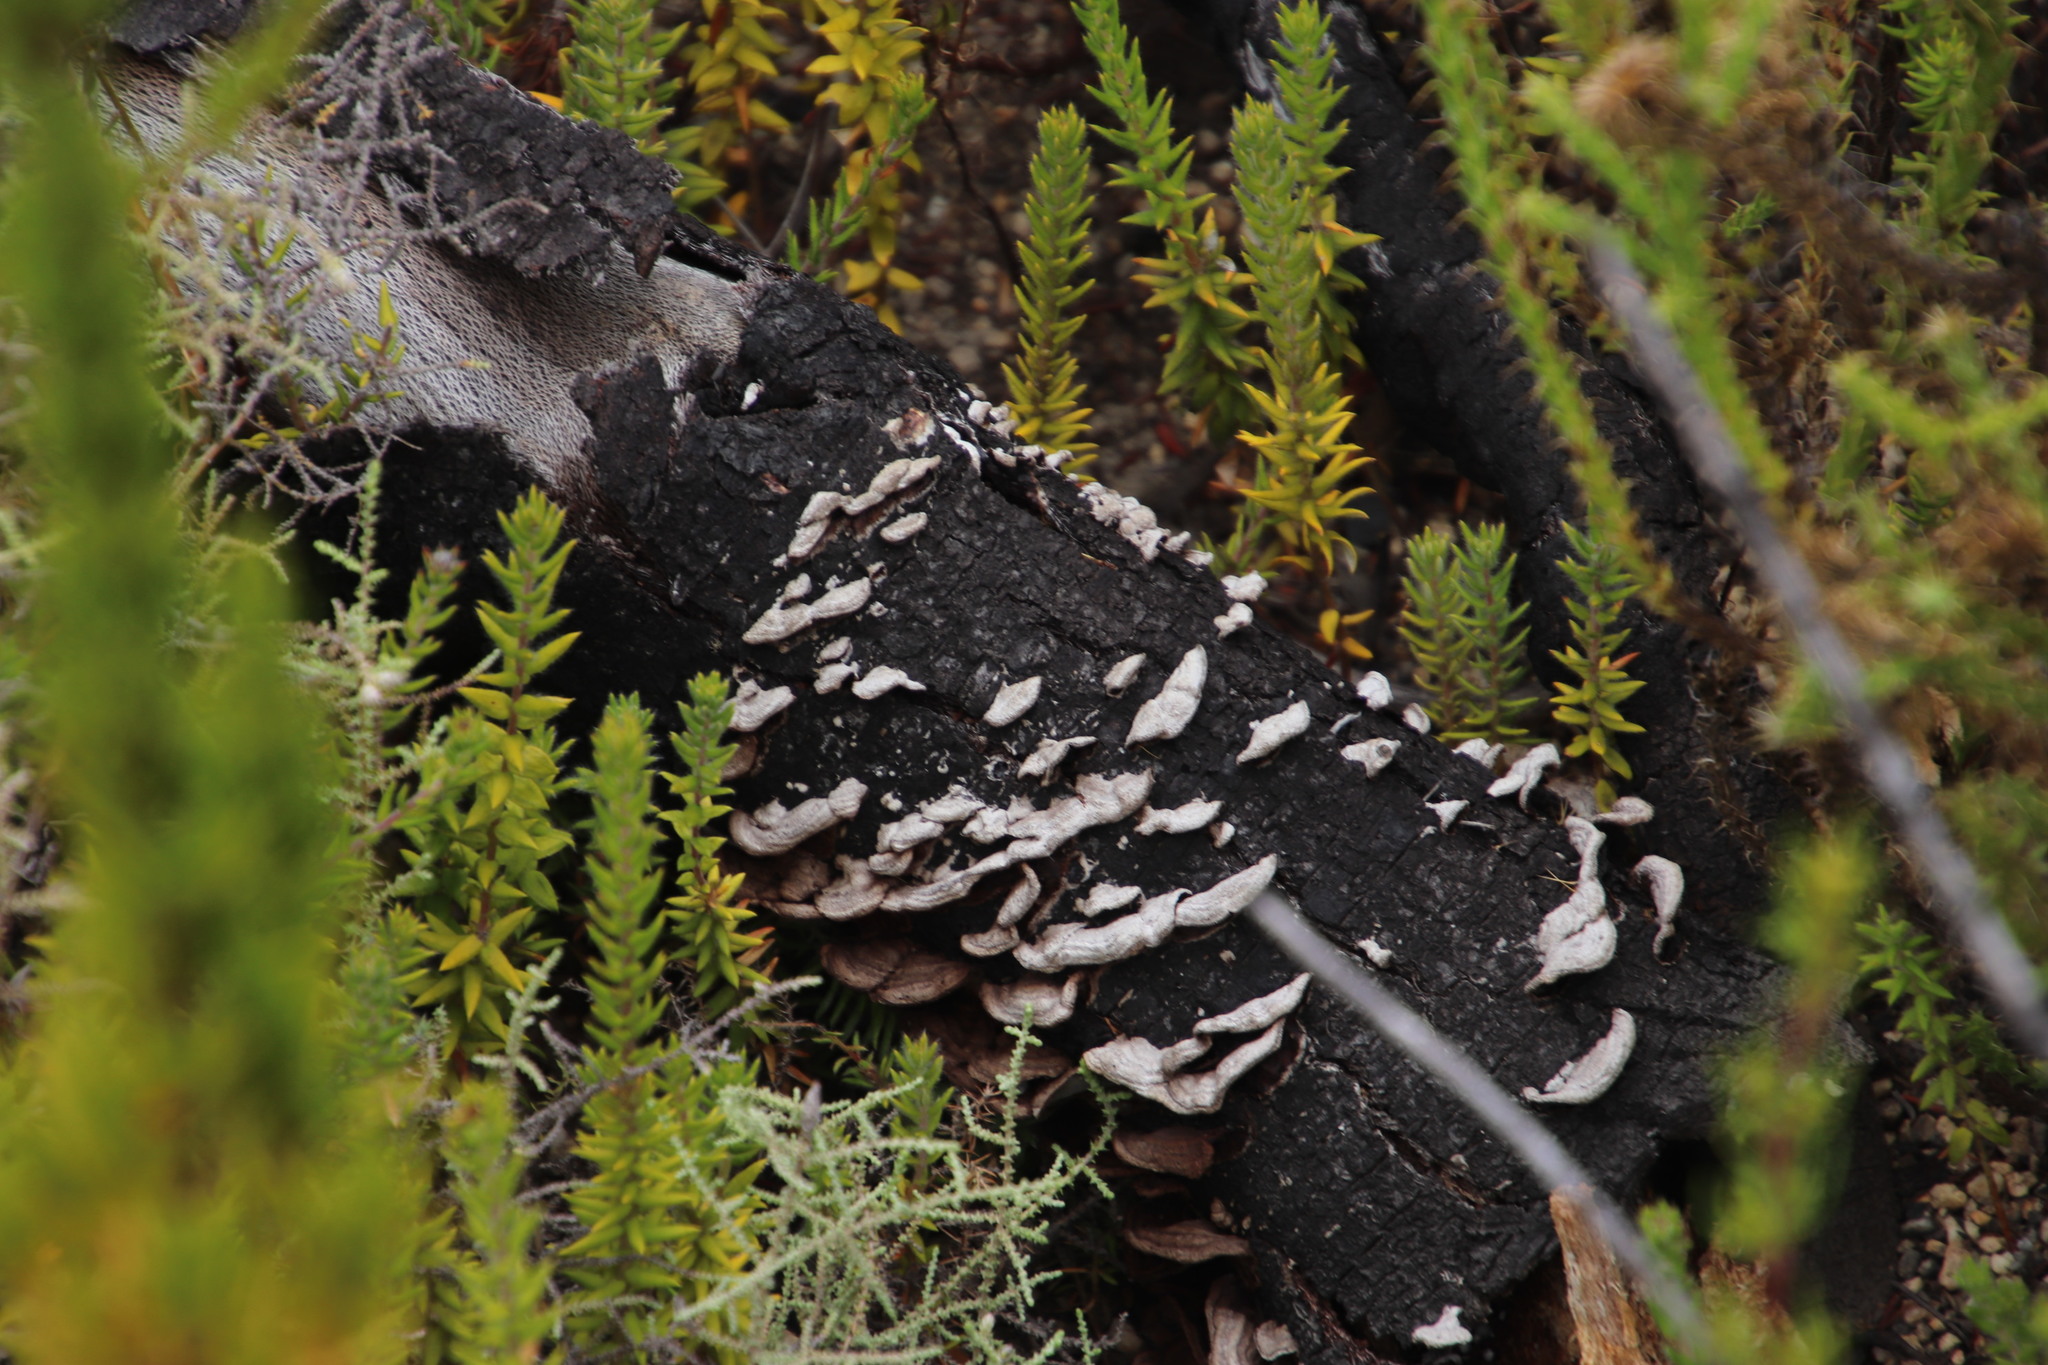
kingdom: Fungi
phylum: Basidiomycota
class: Agaricomycetes
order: Agaricales
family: Schizophyllaceae
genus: Schizophyllum
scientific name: Schizophyllum commune
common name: Common porecrust
